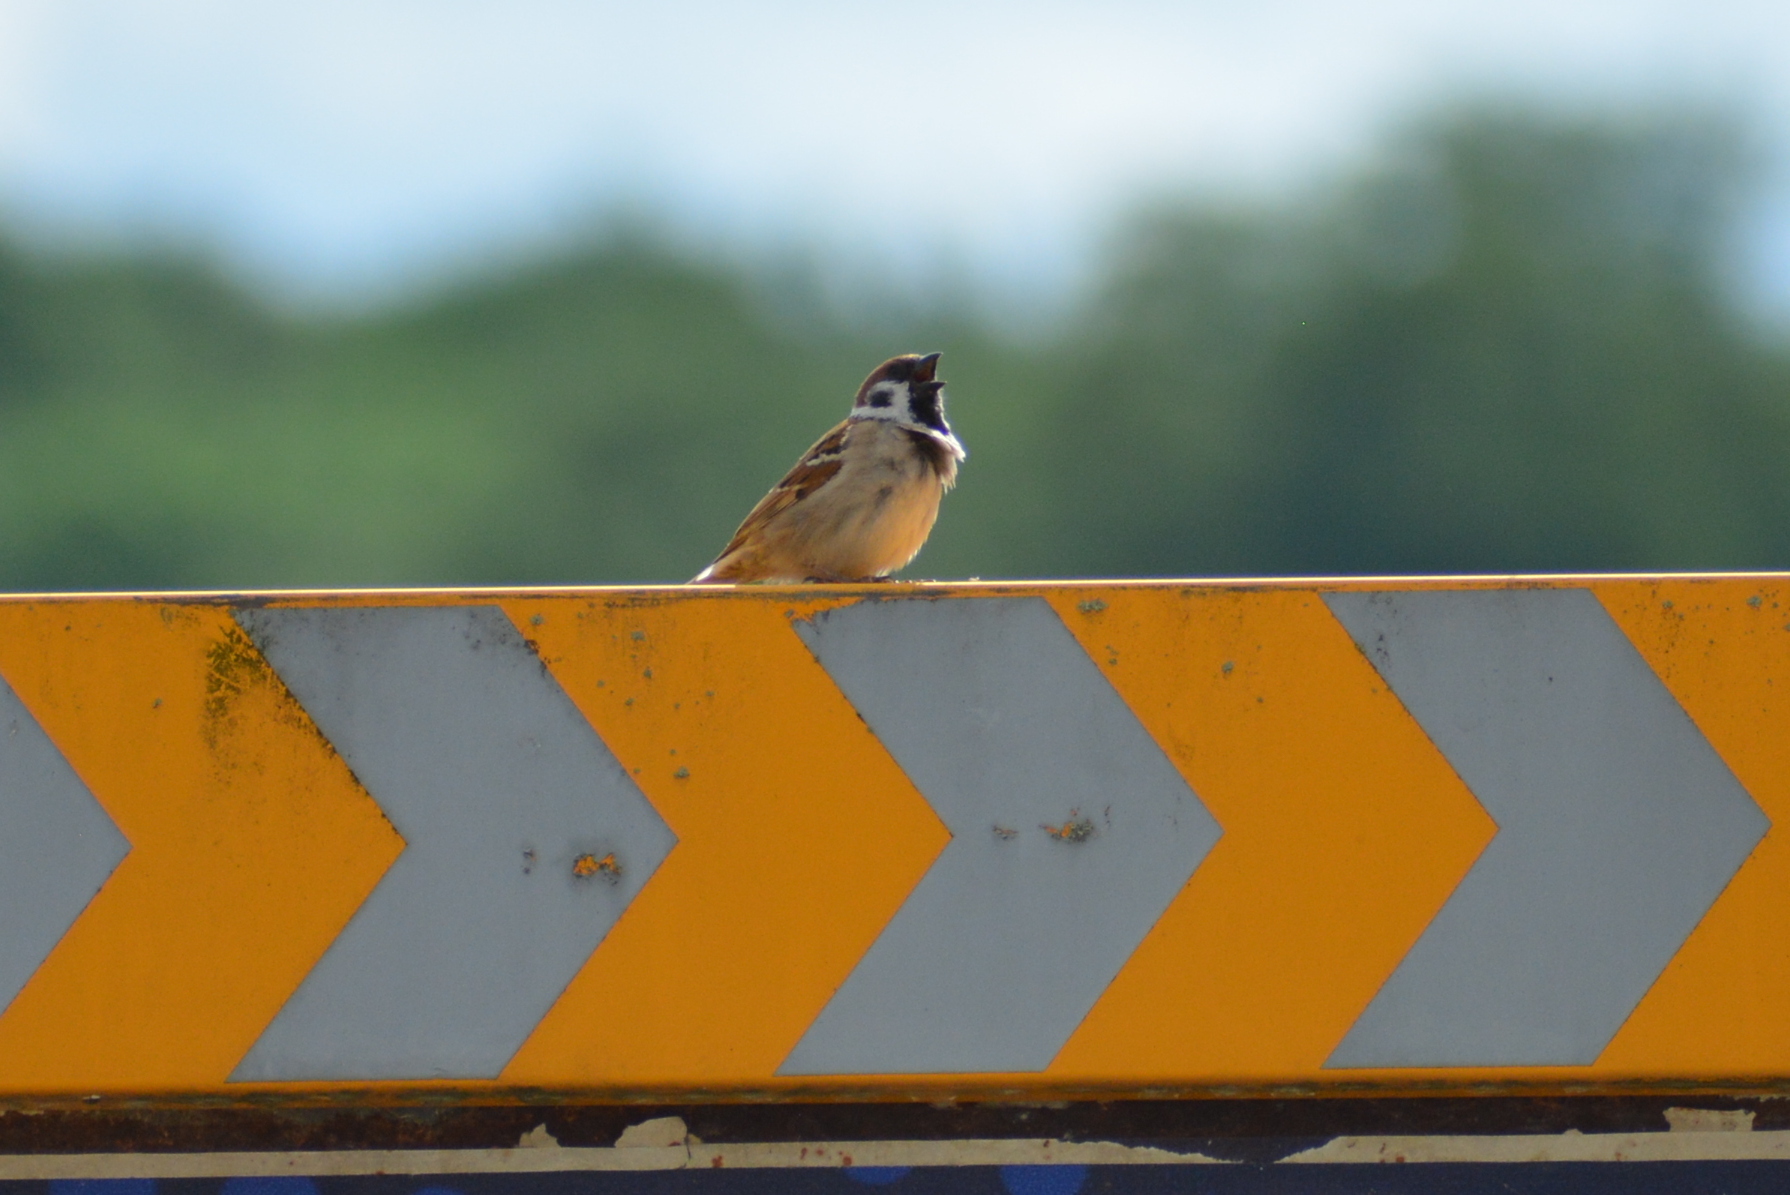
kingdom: Animalia
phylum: Chordata
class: Aves
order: Passeriformes
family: Passeridae
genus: Passer
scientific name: Passer montanus
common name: Eurasian tree sparrow
